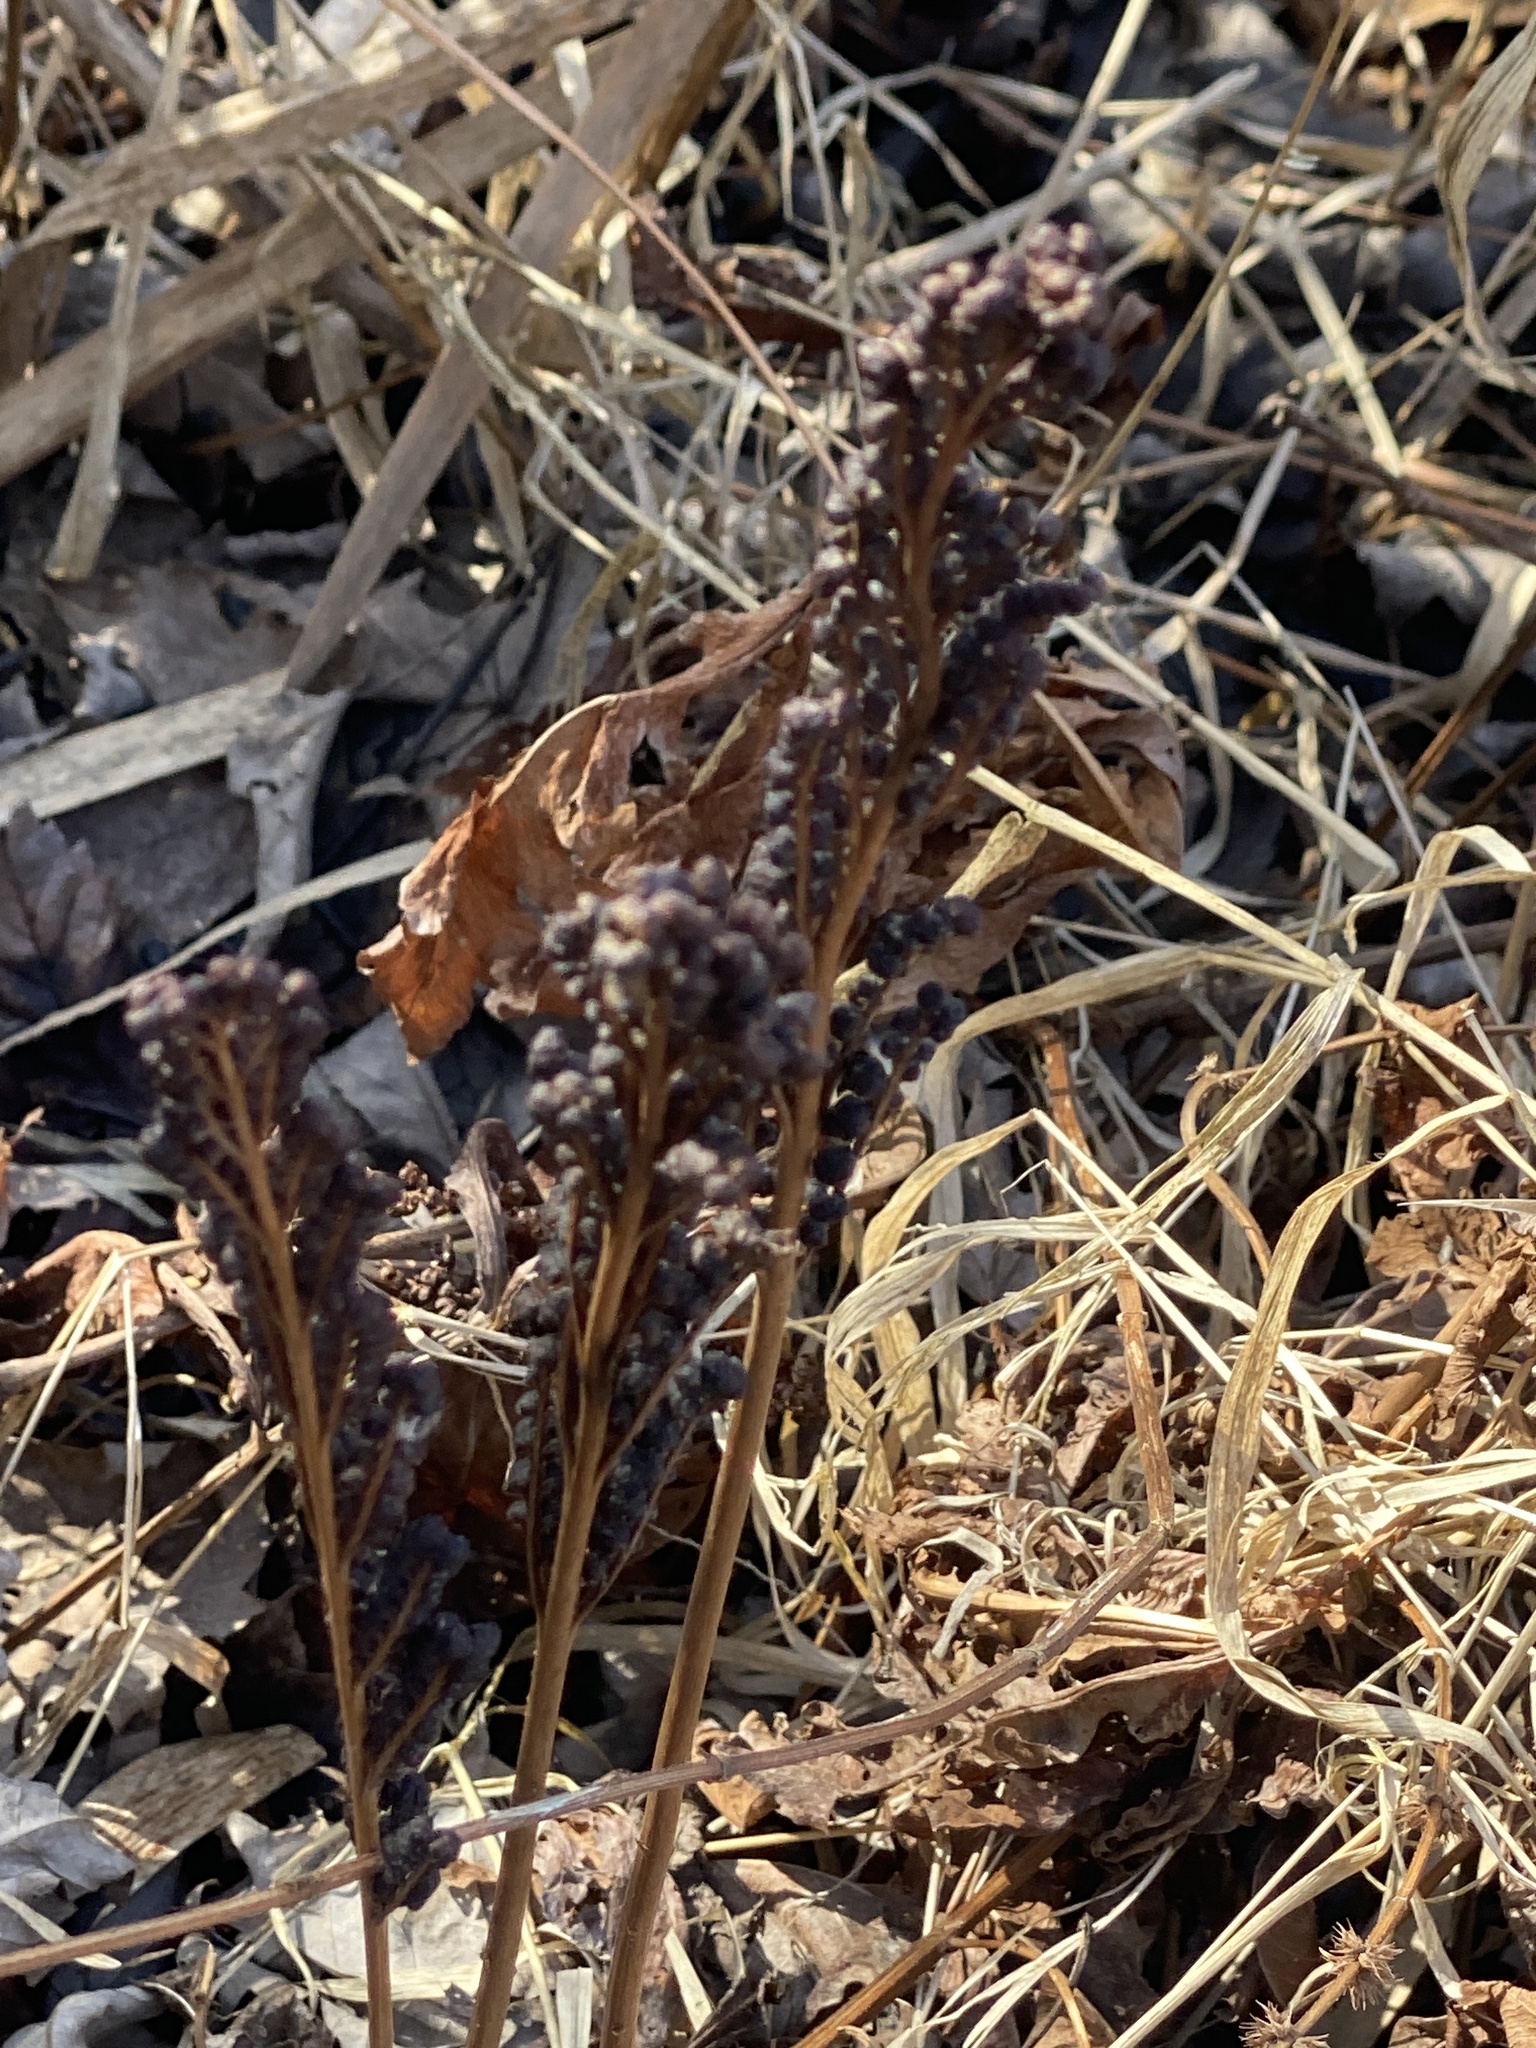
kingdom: Plantae
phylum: Tracheophyta
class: Polypodiopsida
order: Polypodiales
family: Onocleaceae
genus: Onoclea
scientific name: Onoclea sensibilis
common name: Sensitive fern
